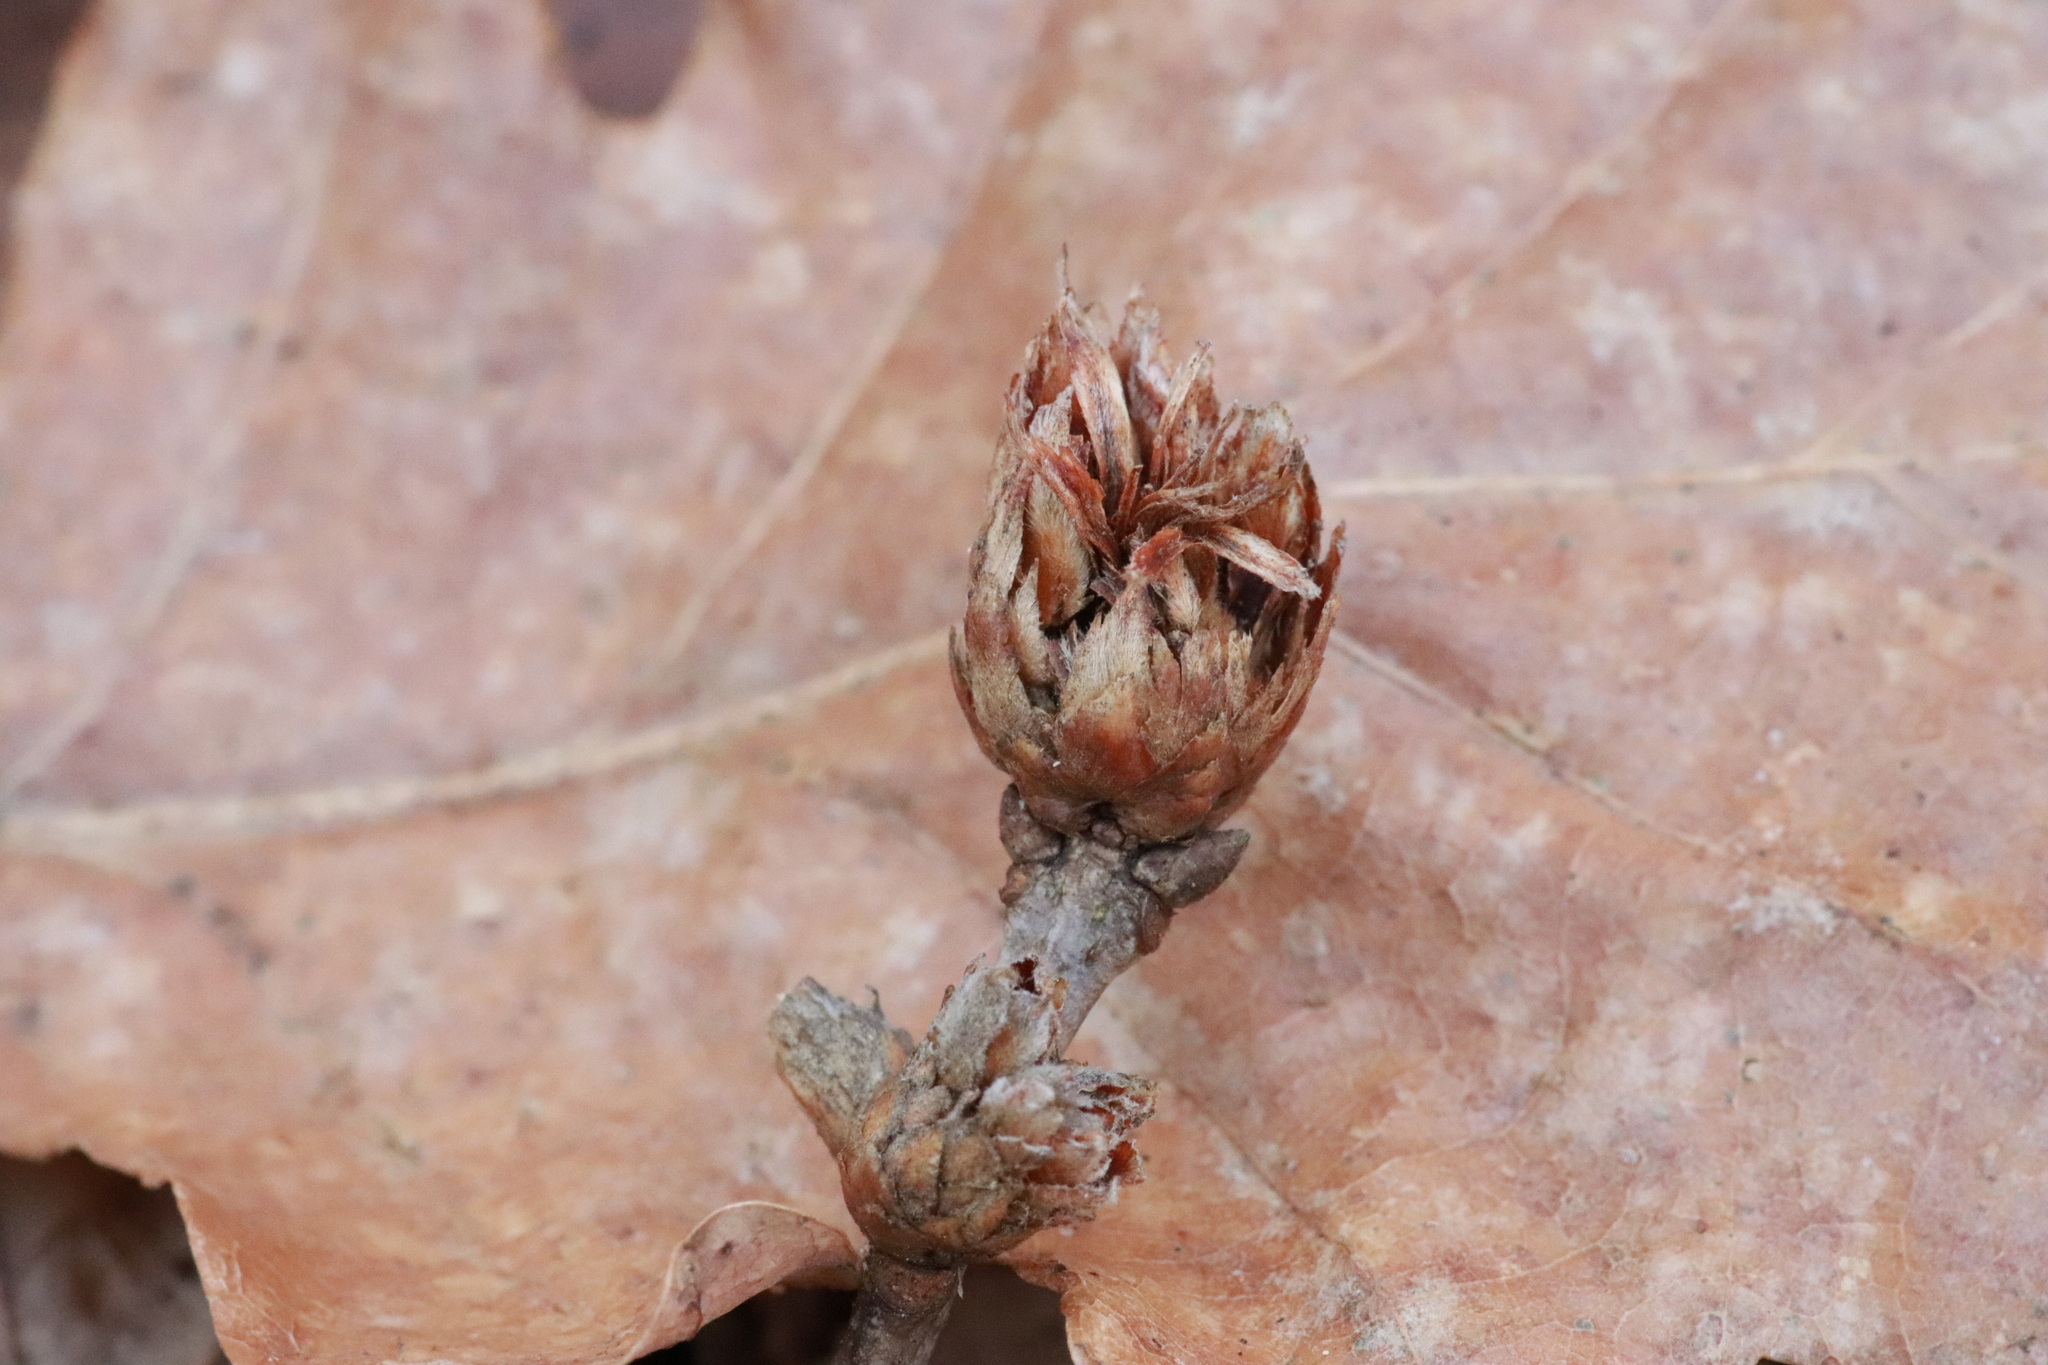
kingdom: Animalia
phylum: Arthropoda
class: Insecta
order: Hymenoptera
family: Cynipidae
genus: Andricus
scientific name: Andricus foecundatrix
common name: Artichoke gall
